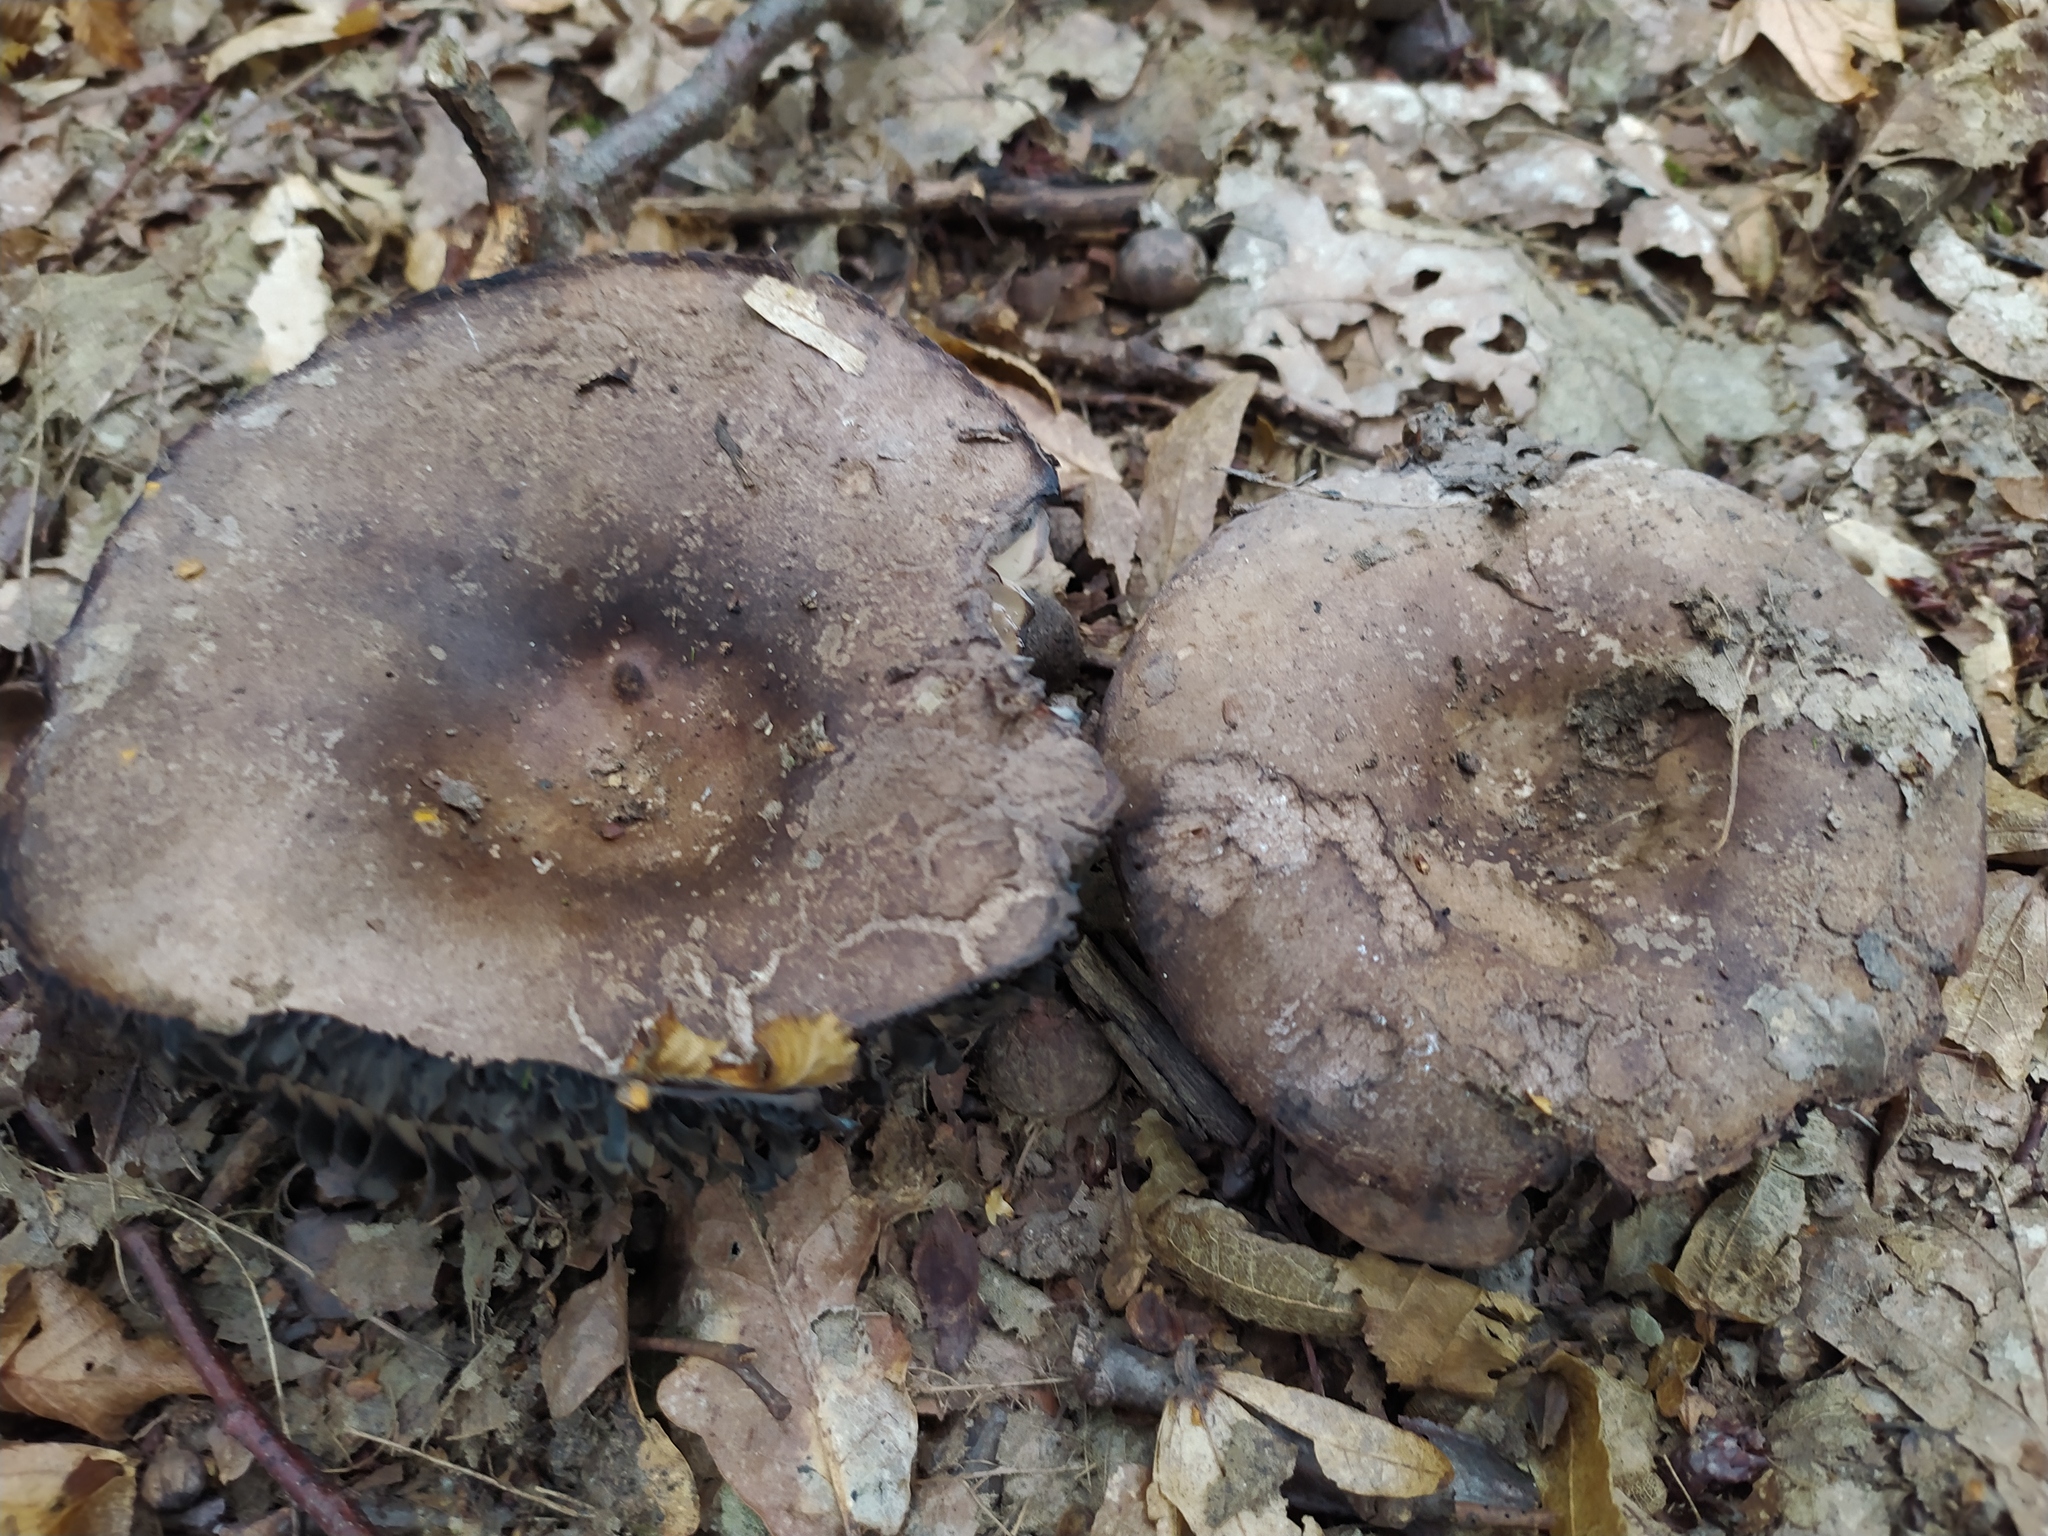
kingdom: Fungi
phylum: Basidiomycota
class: Agaricomycetes
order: Russulales
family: Russulaceae
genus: Russula
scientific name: Russula adusta
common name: Winecork brittlegill
